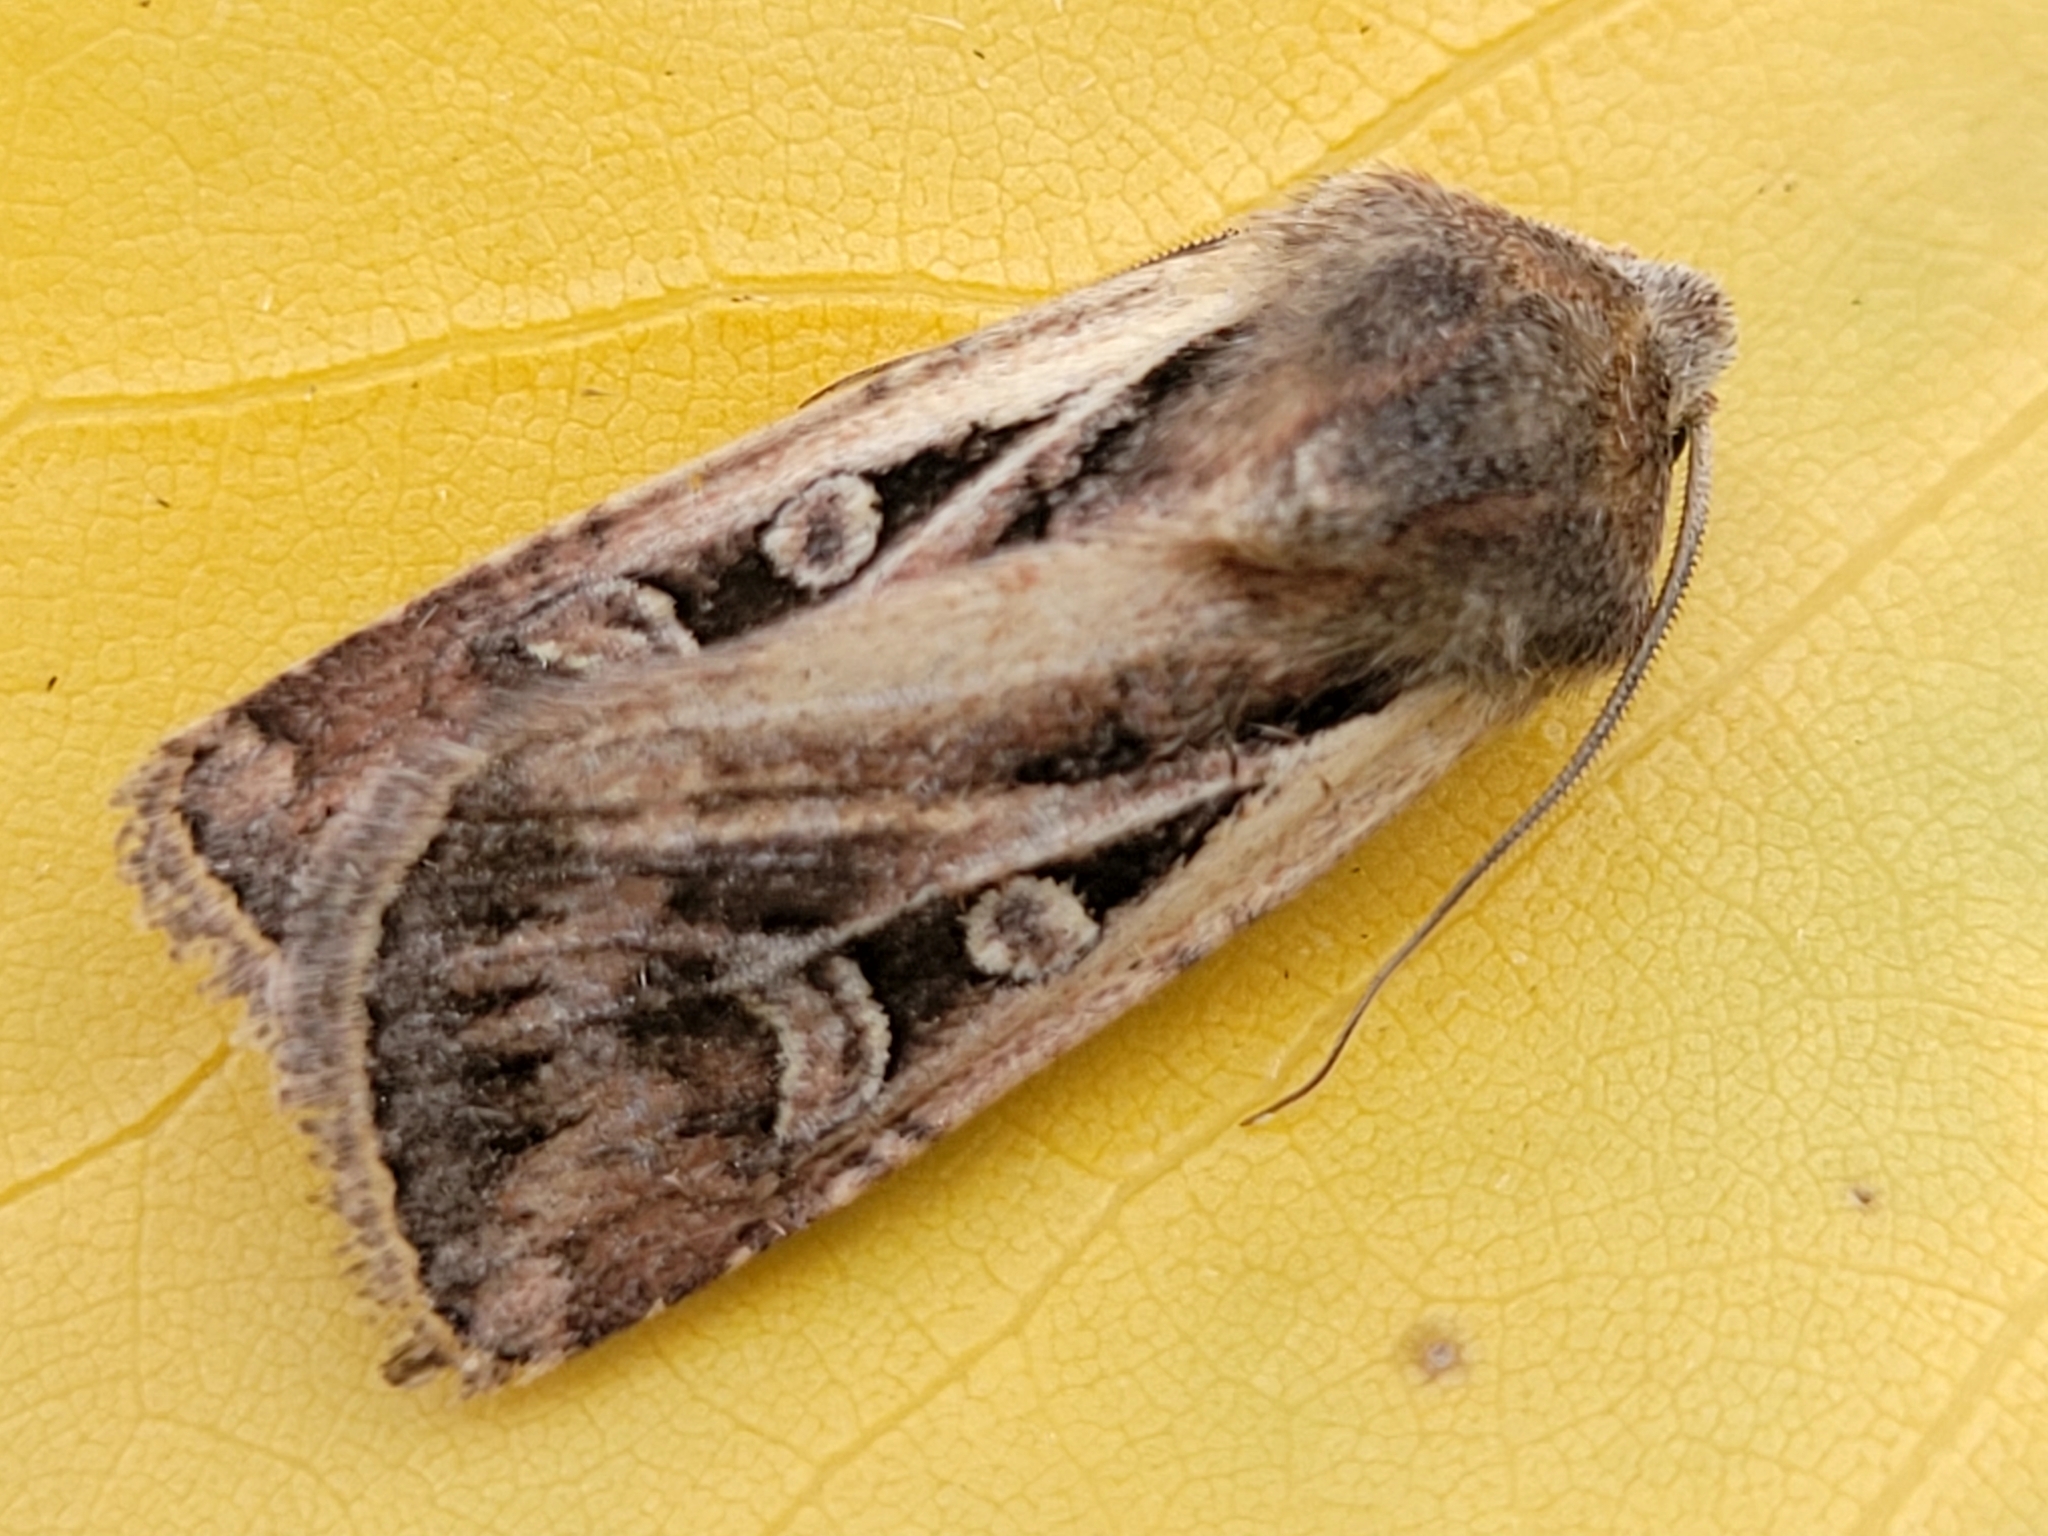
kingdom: Animalia
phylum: Arthropoda
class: Insecta
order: Lepidoptera
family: Noctuidae
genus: Euxoa
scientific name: Euxoa laetificans
